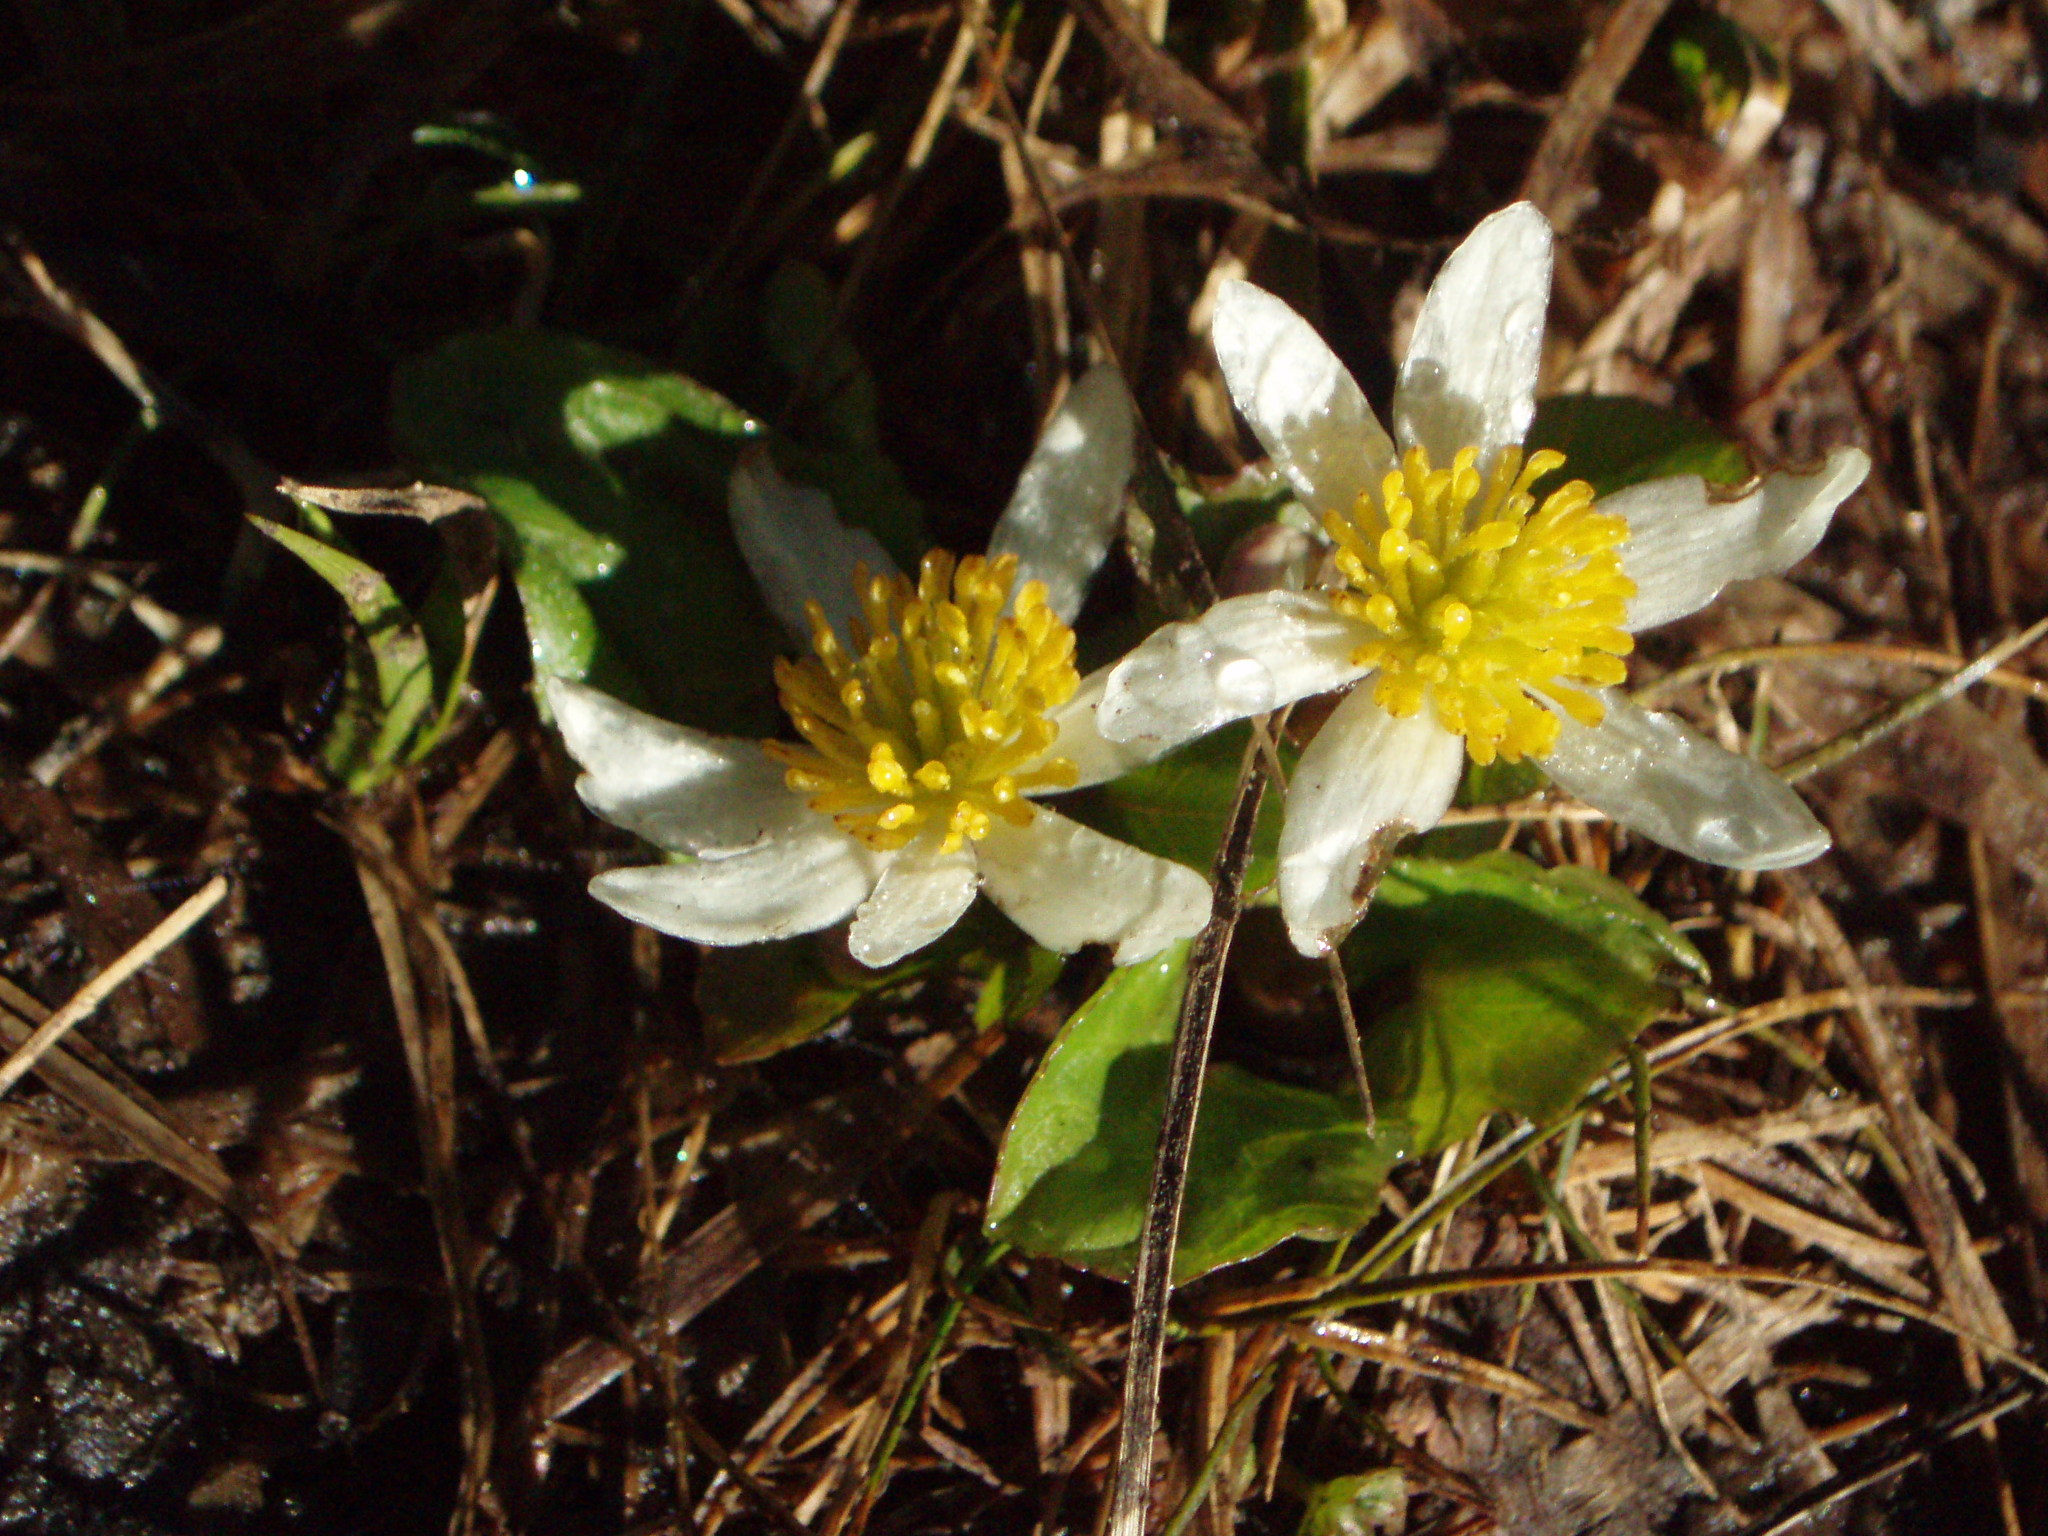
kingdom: Plantae
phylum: Tracheophyta
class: Magnoliopsida
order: Ranunculales
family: Ranunculaceae
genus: Caltha
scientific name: Caltha leptosepala
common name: Elkslip
